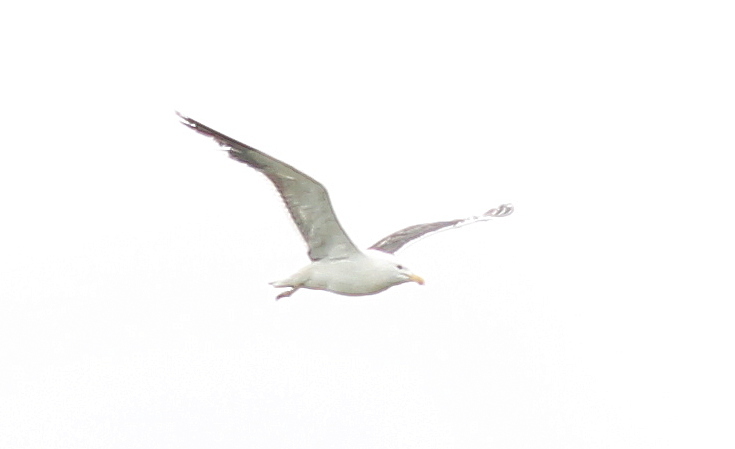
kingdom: Animalia
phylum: Chordata
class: Aves
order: Charadriiformes
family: Laridae
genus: Larus
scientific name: Larus dominicanus
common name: Kelp gull
